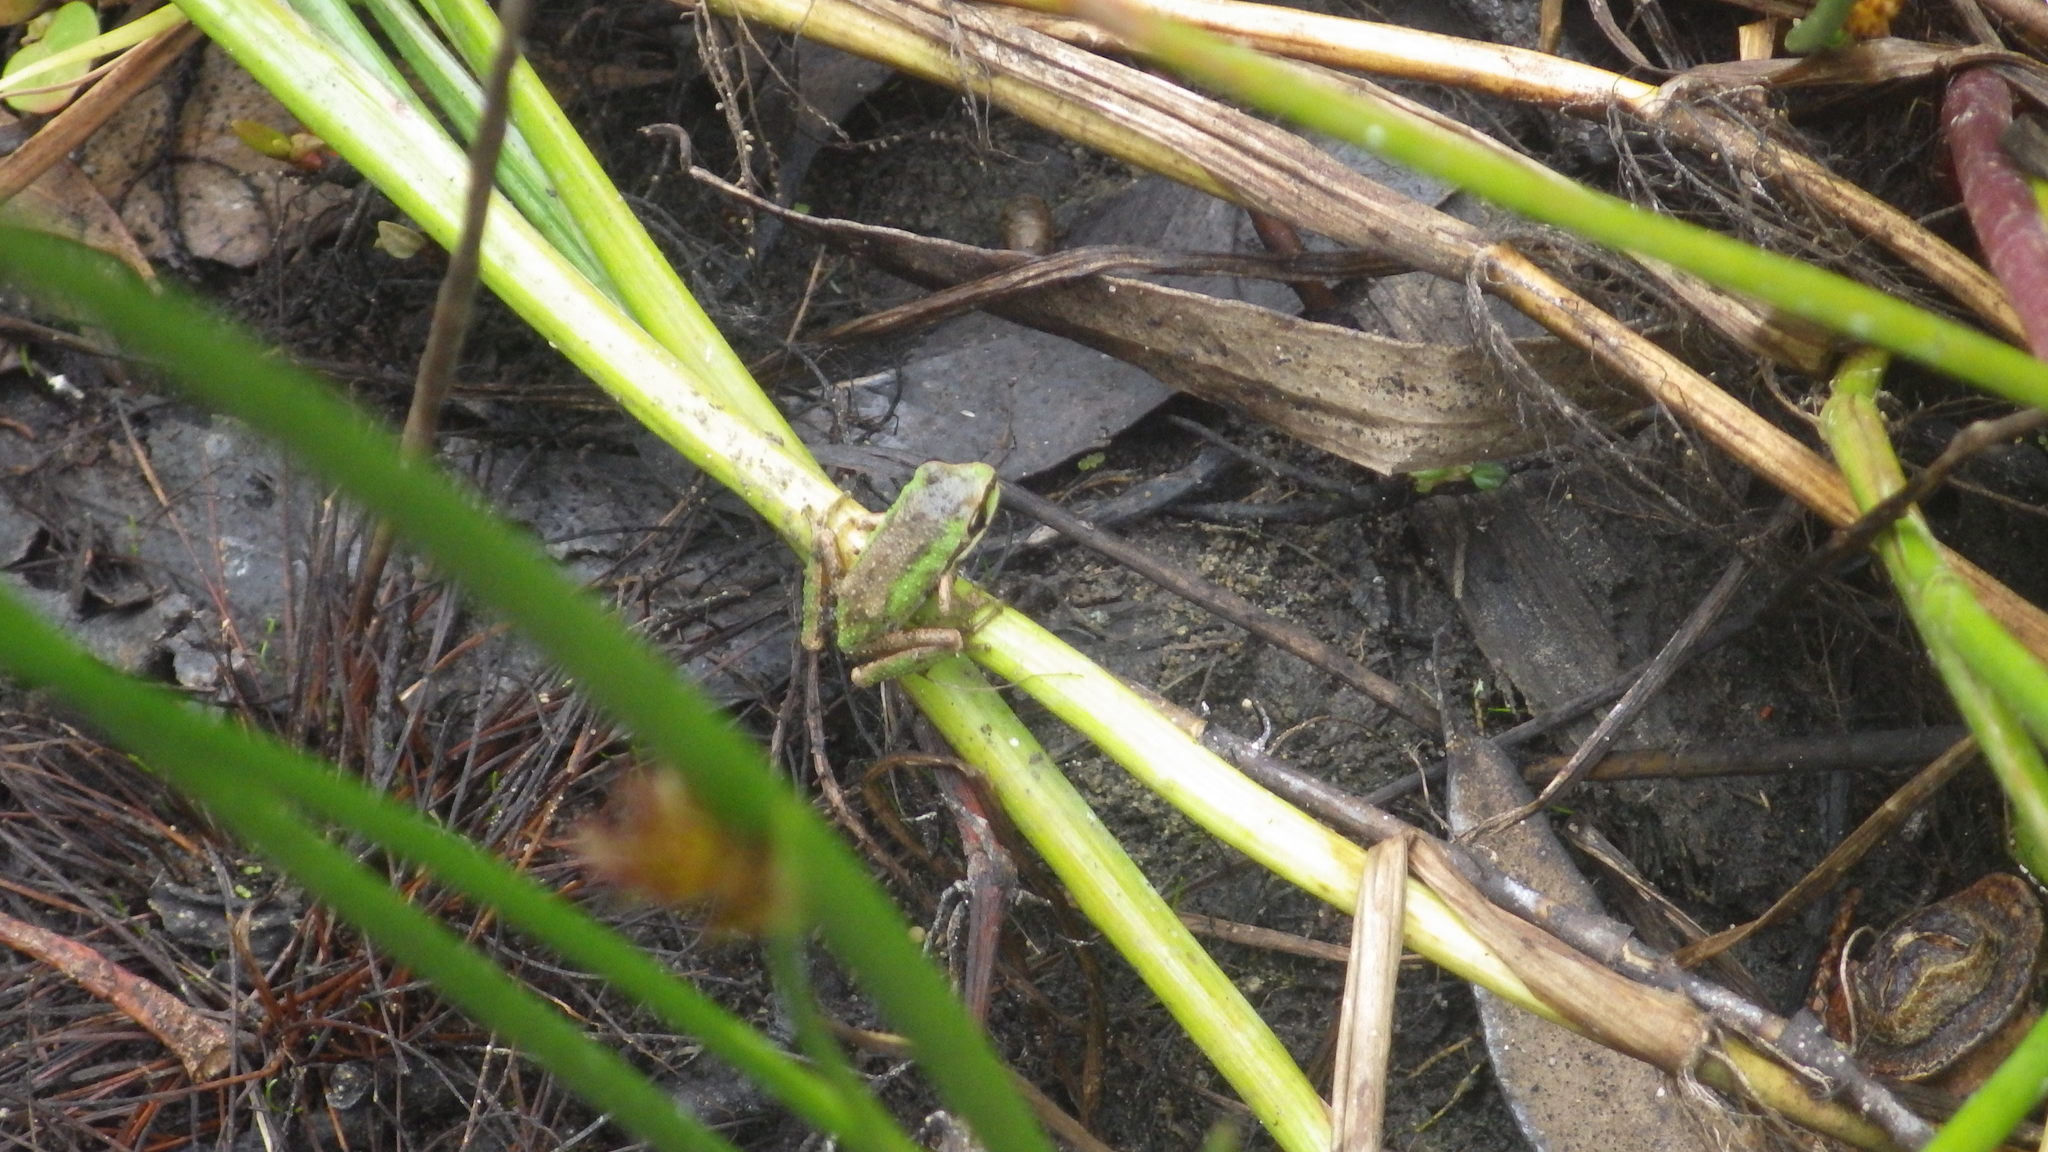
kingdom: Animalia
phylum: Chordata
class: Amphibia
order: Anura
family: Hylidae
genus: Pseudacris
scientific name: Pseudacris regilla
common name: Pacific chorus frog
